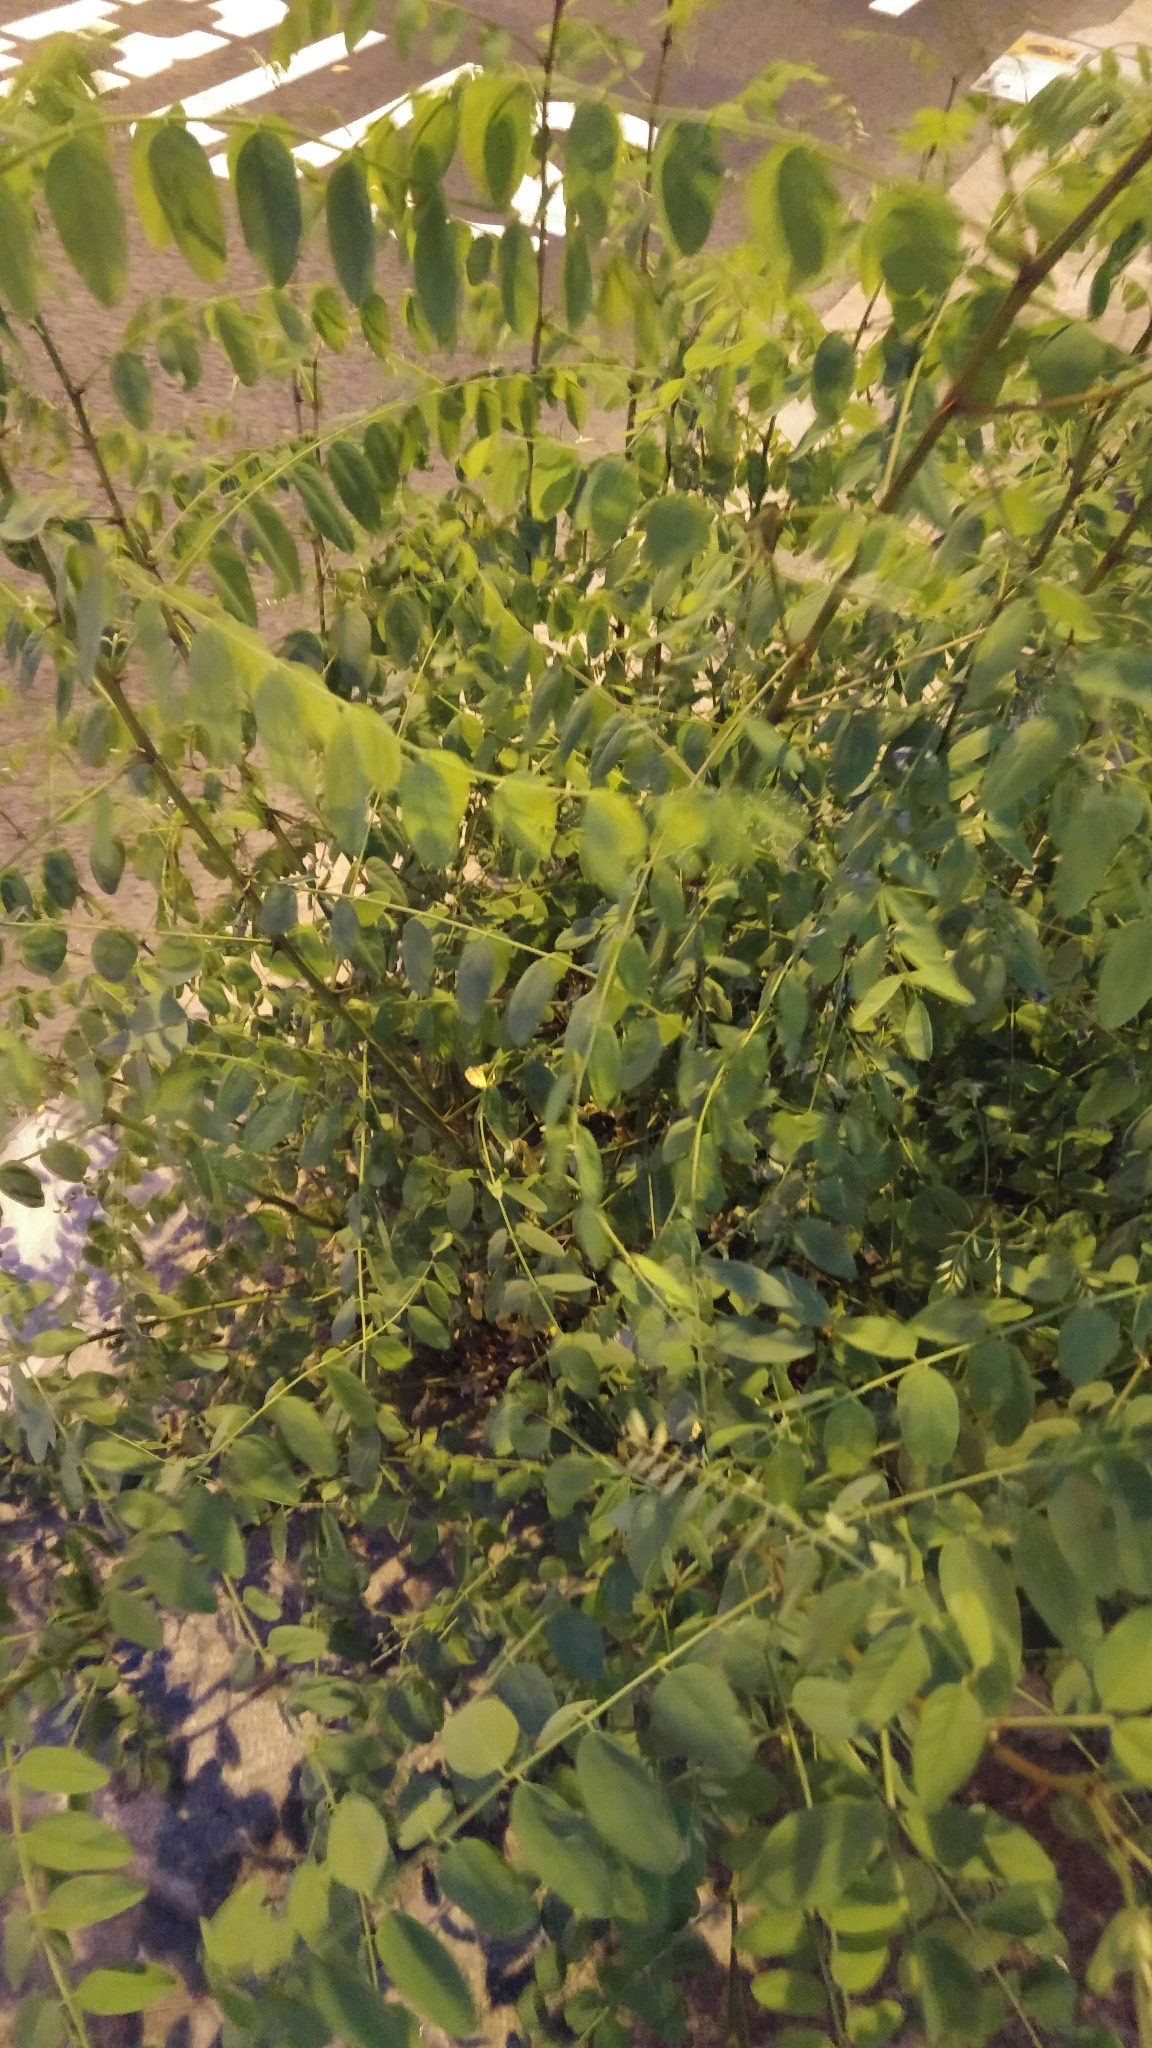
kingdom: Plantae
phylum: Tracheophyta
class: Magnoliopsida
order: Fabales
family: Fabaceae
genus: Robinia
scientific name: Robinia pseudoacacia
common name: Black locust
